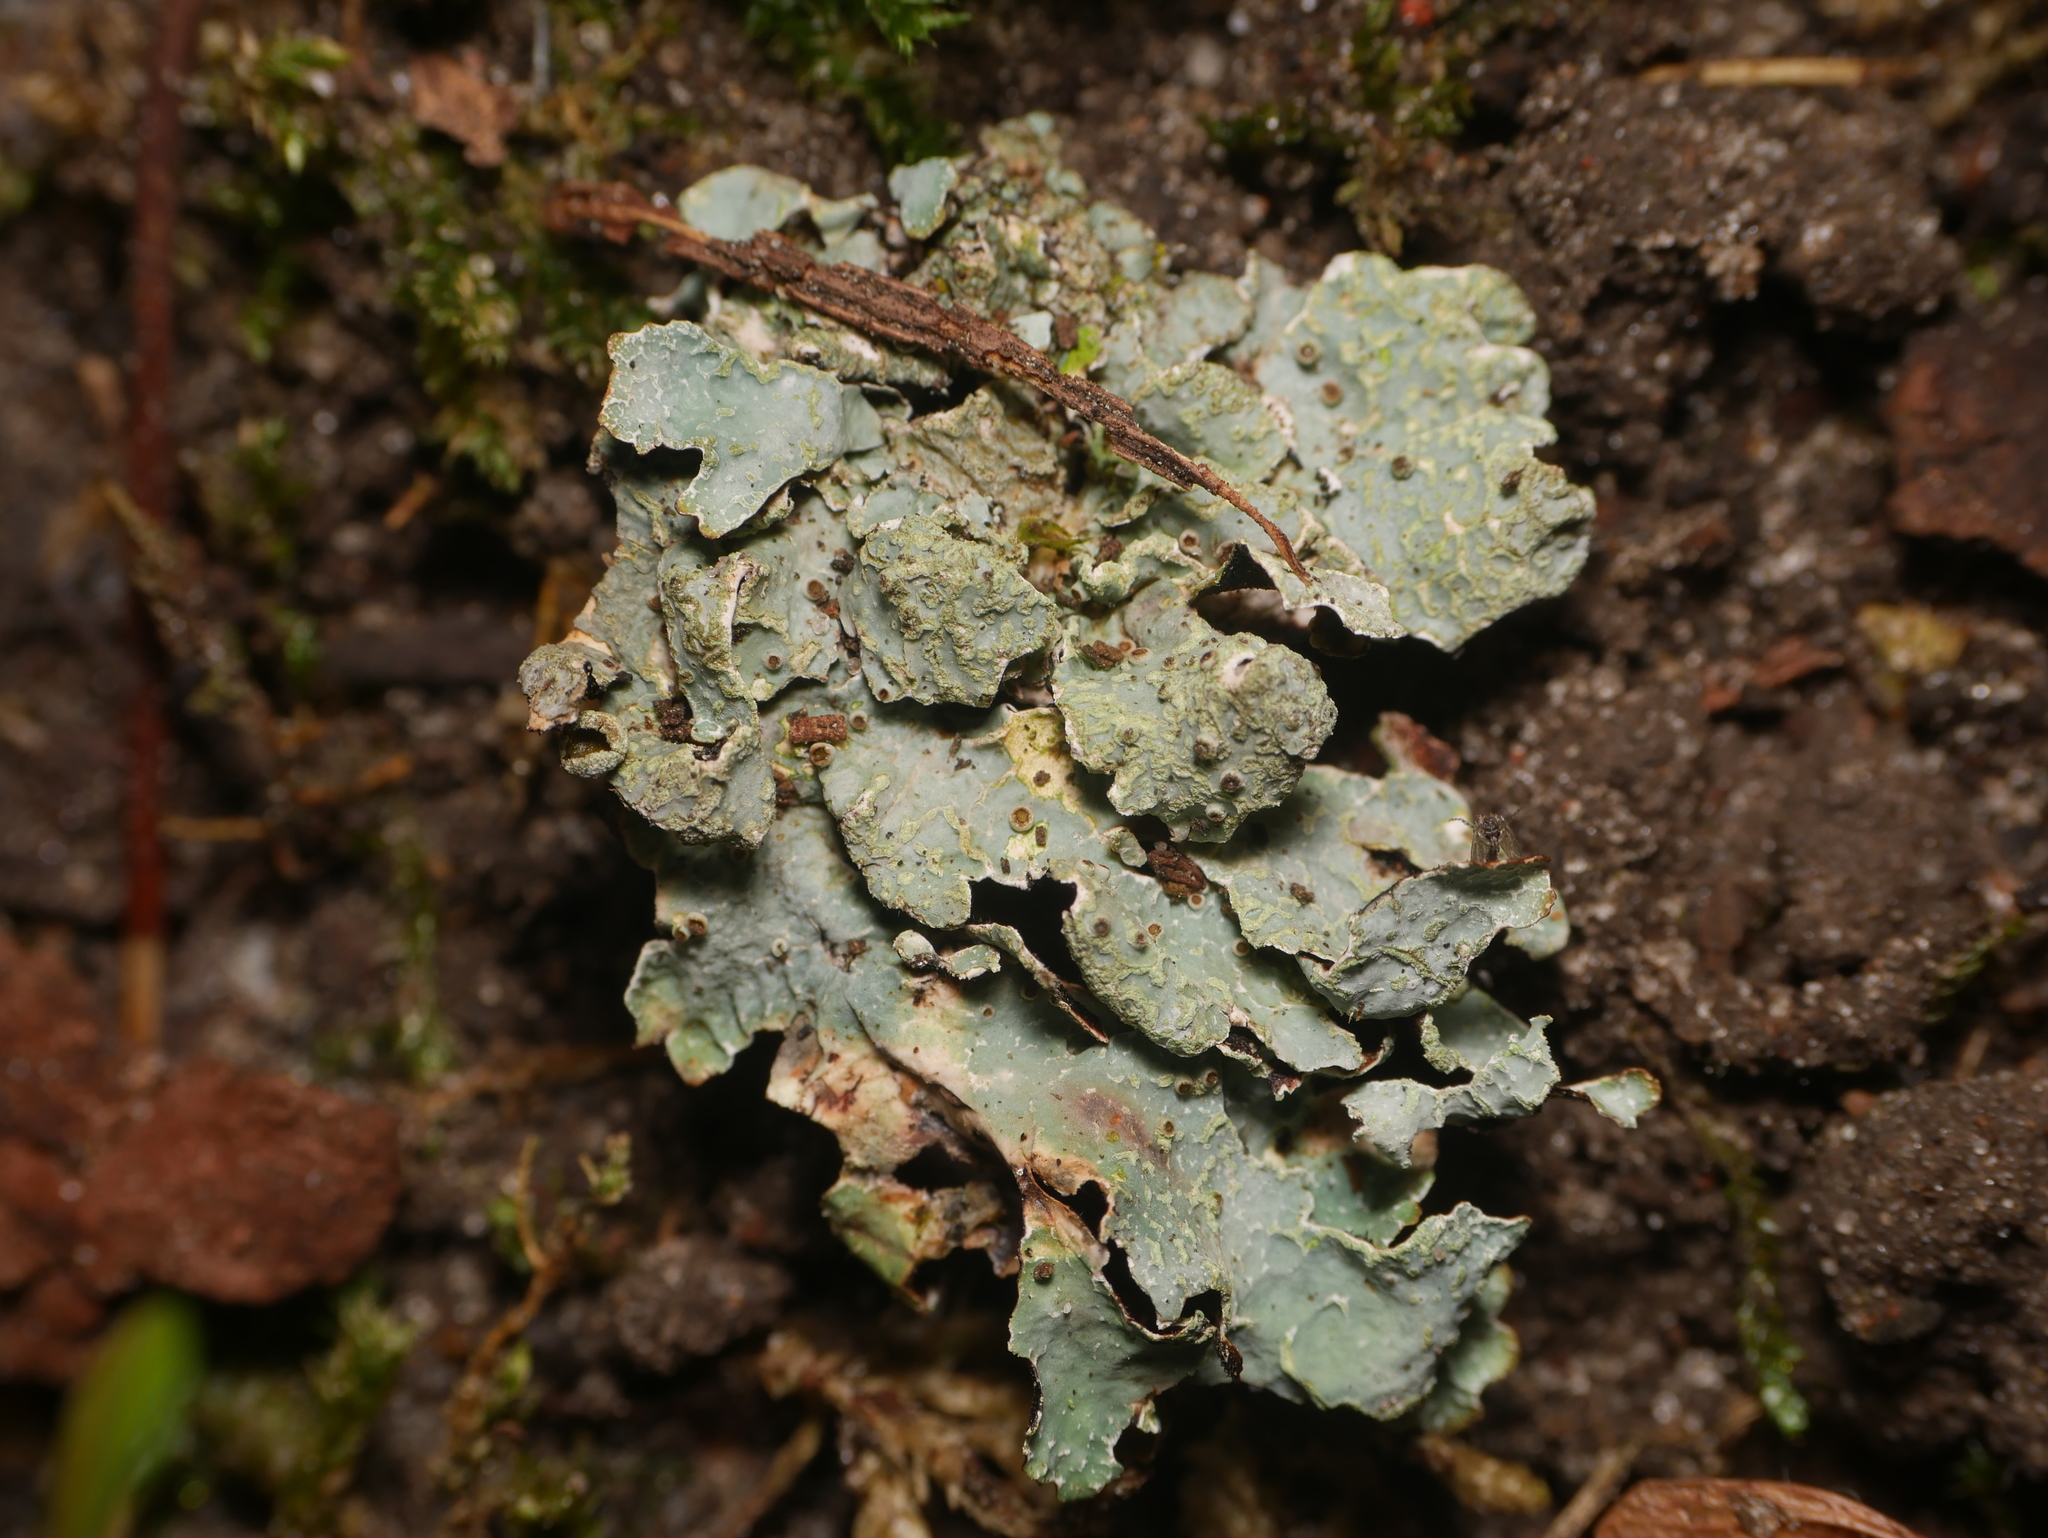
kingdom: Fungi
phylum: Ascomycota
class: Lecanoromycetes
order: Lecanorales
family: Parmeliaceae
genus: Parmelia
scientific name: Parmelia sulcata
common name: Netted shield lichen
